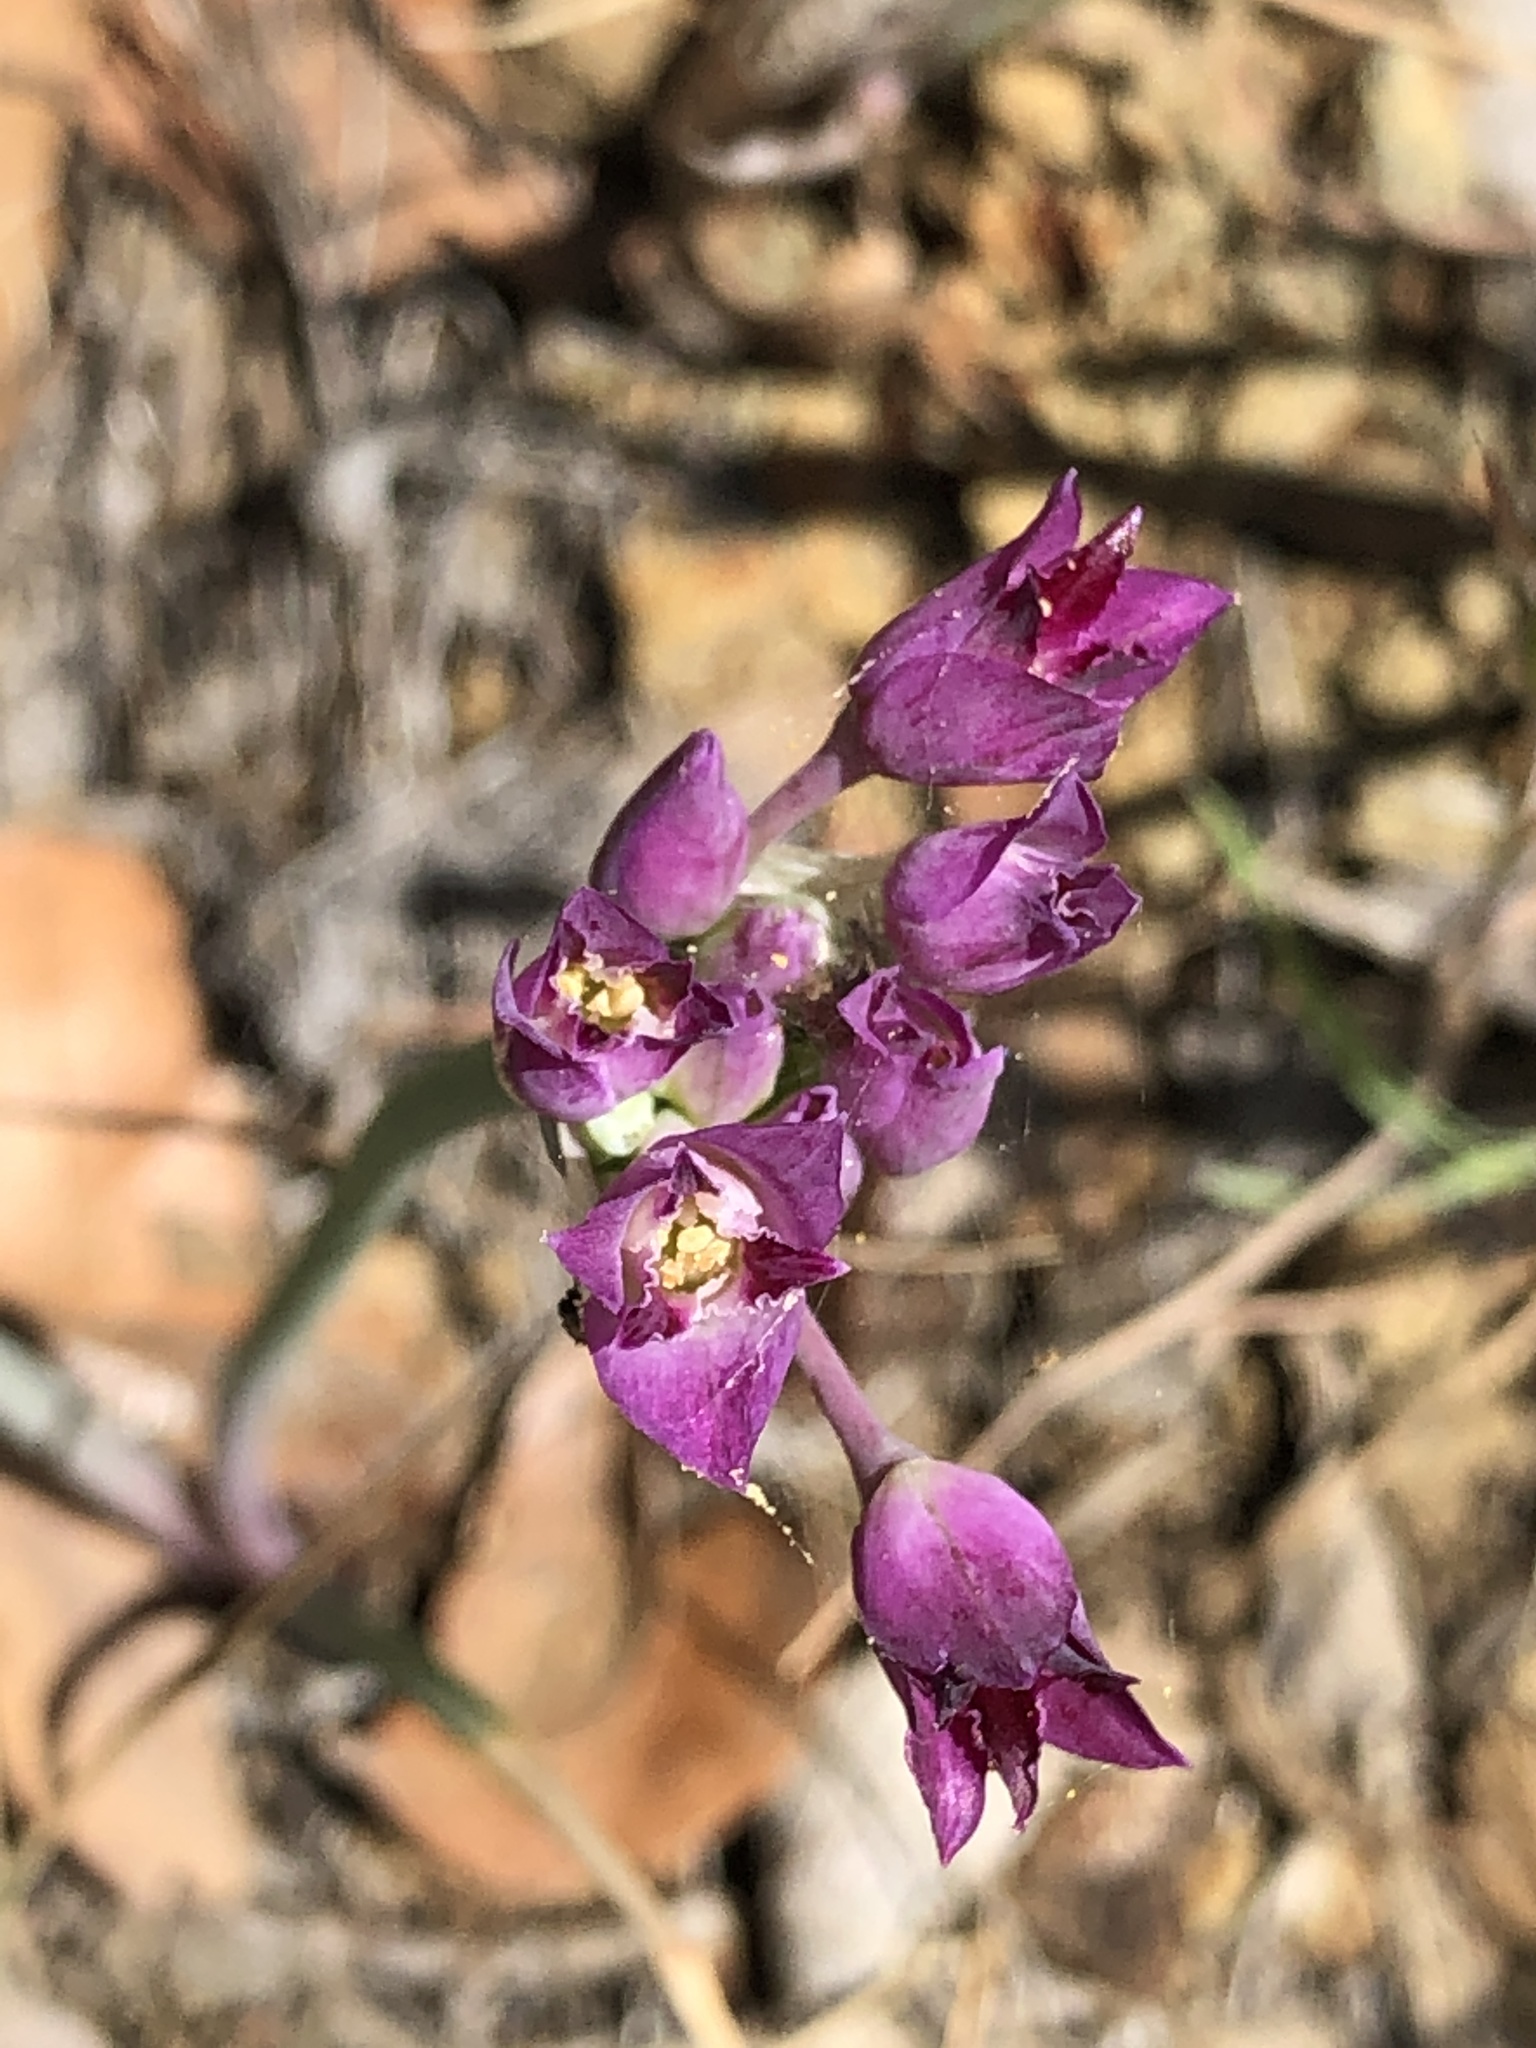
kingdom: Plantae
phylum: Tracheophyta
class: Liliopsida
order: Asparagales
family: Amaryllidaceae
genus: Allium
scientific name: Allium crispum
